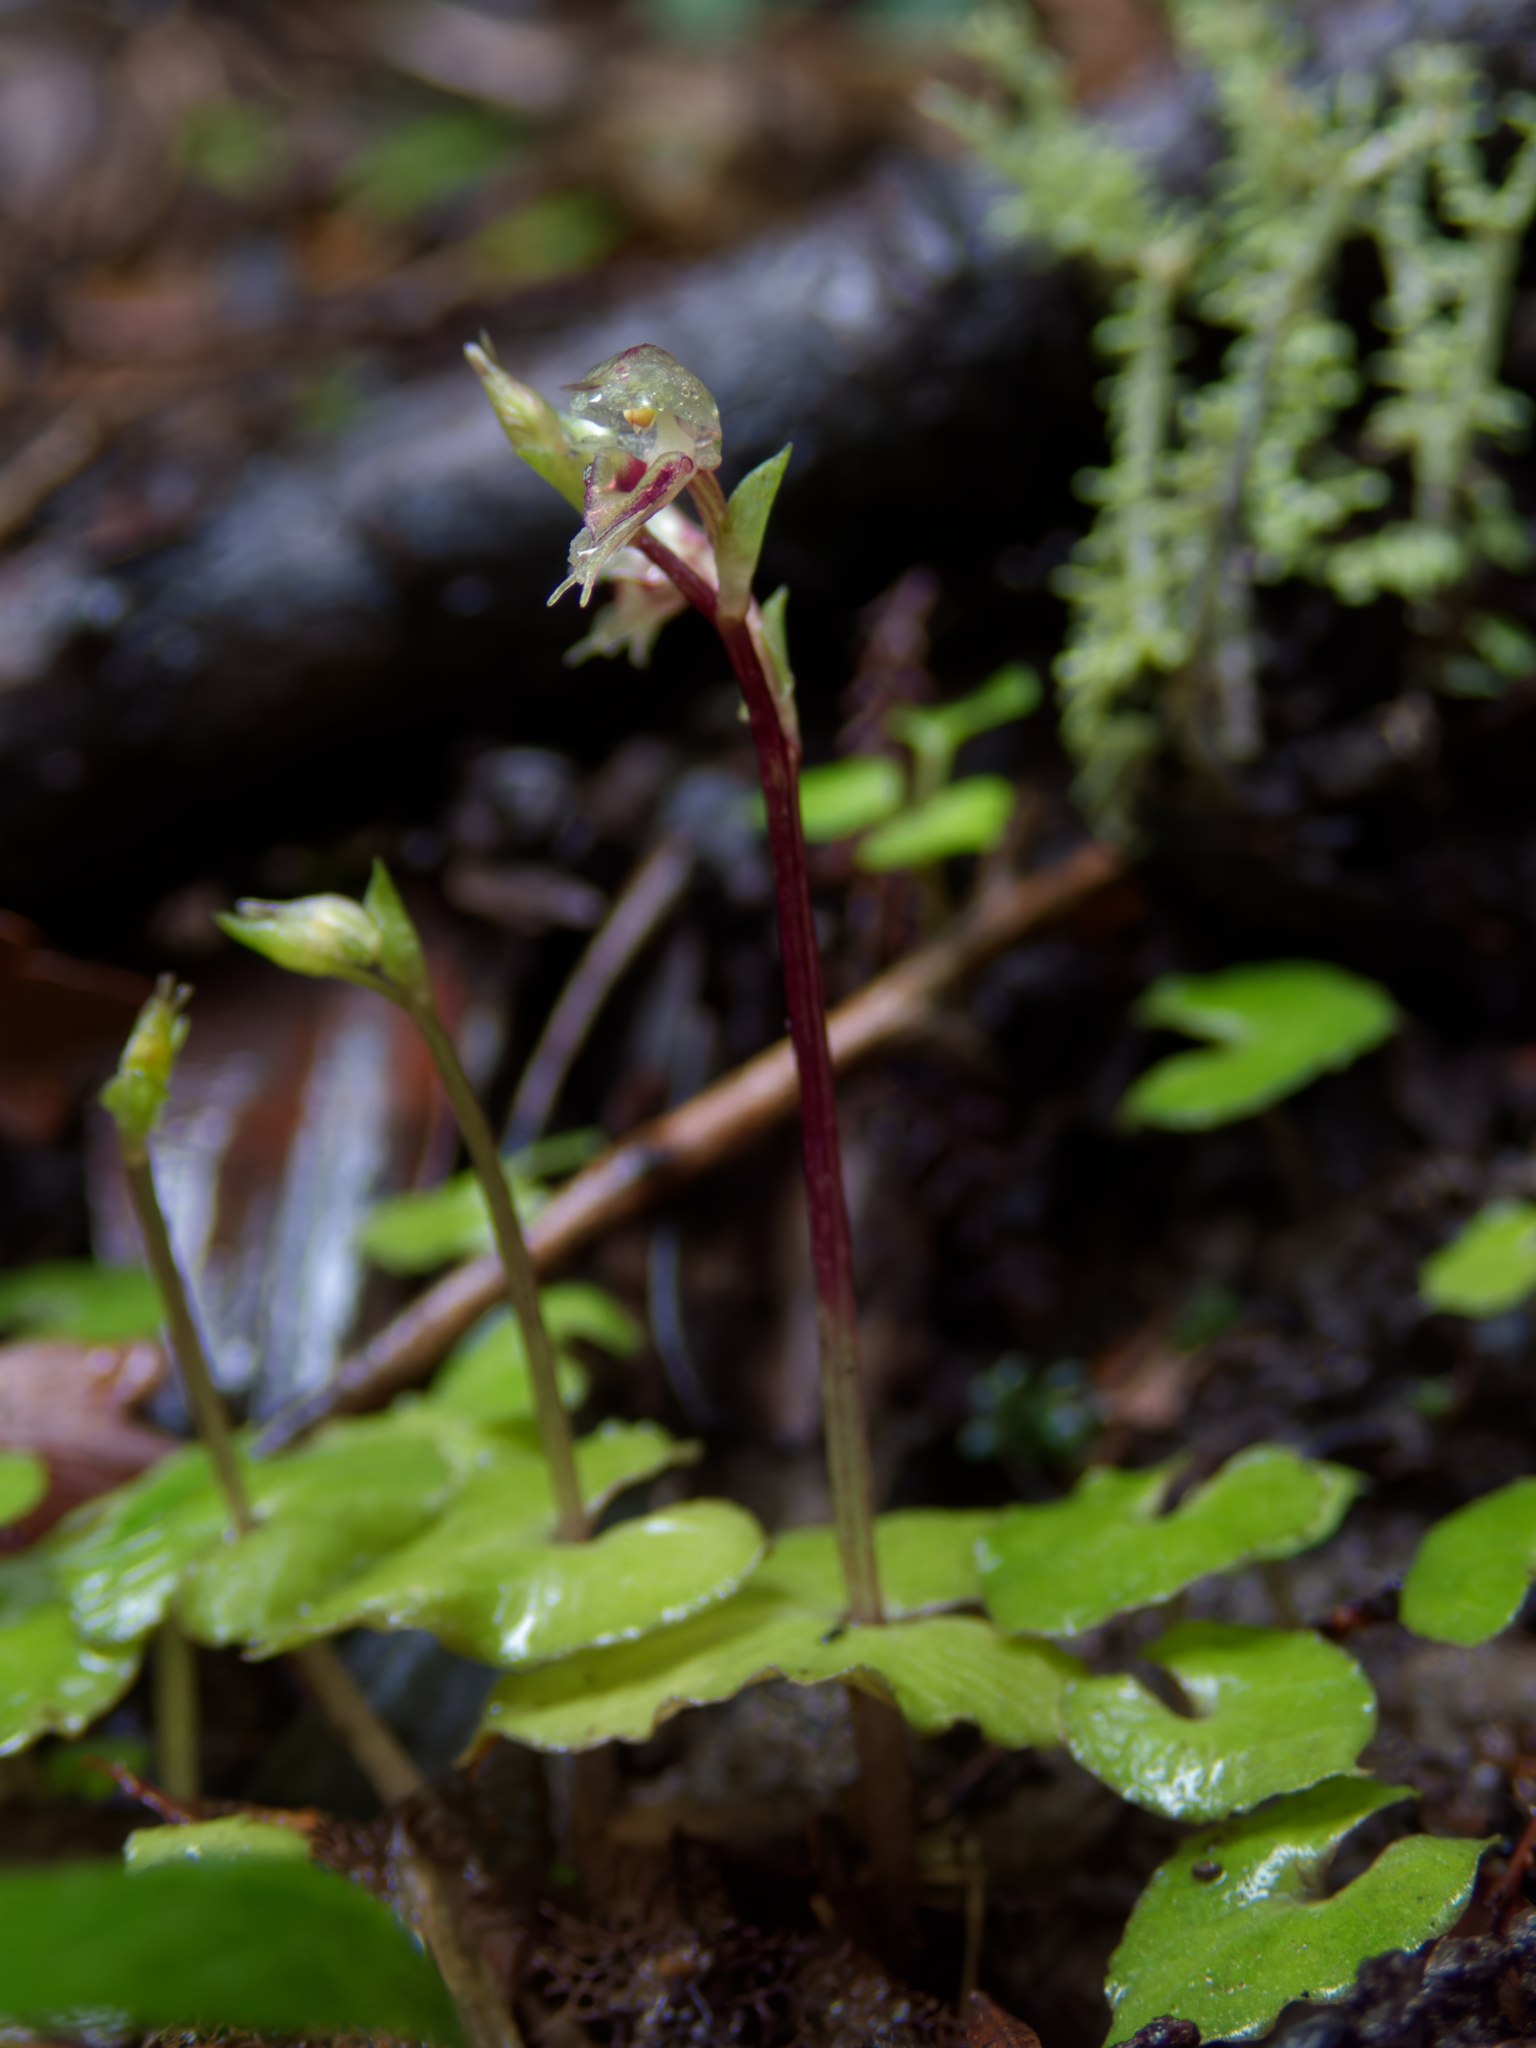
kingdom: Plantae
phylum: Tracheophyta
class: Liliopsida
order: Asparagales
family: Orchidaceae
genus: Acianthus
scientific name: Acianthus sinclairii
